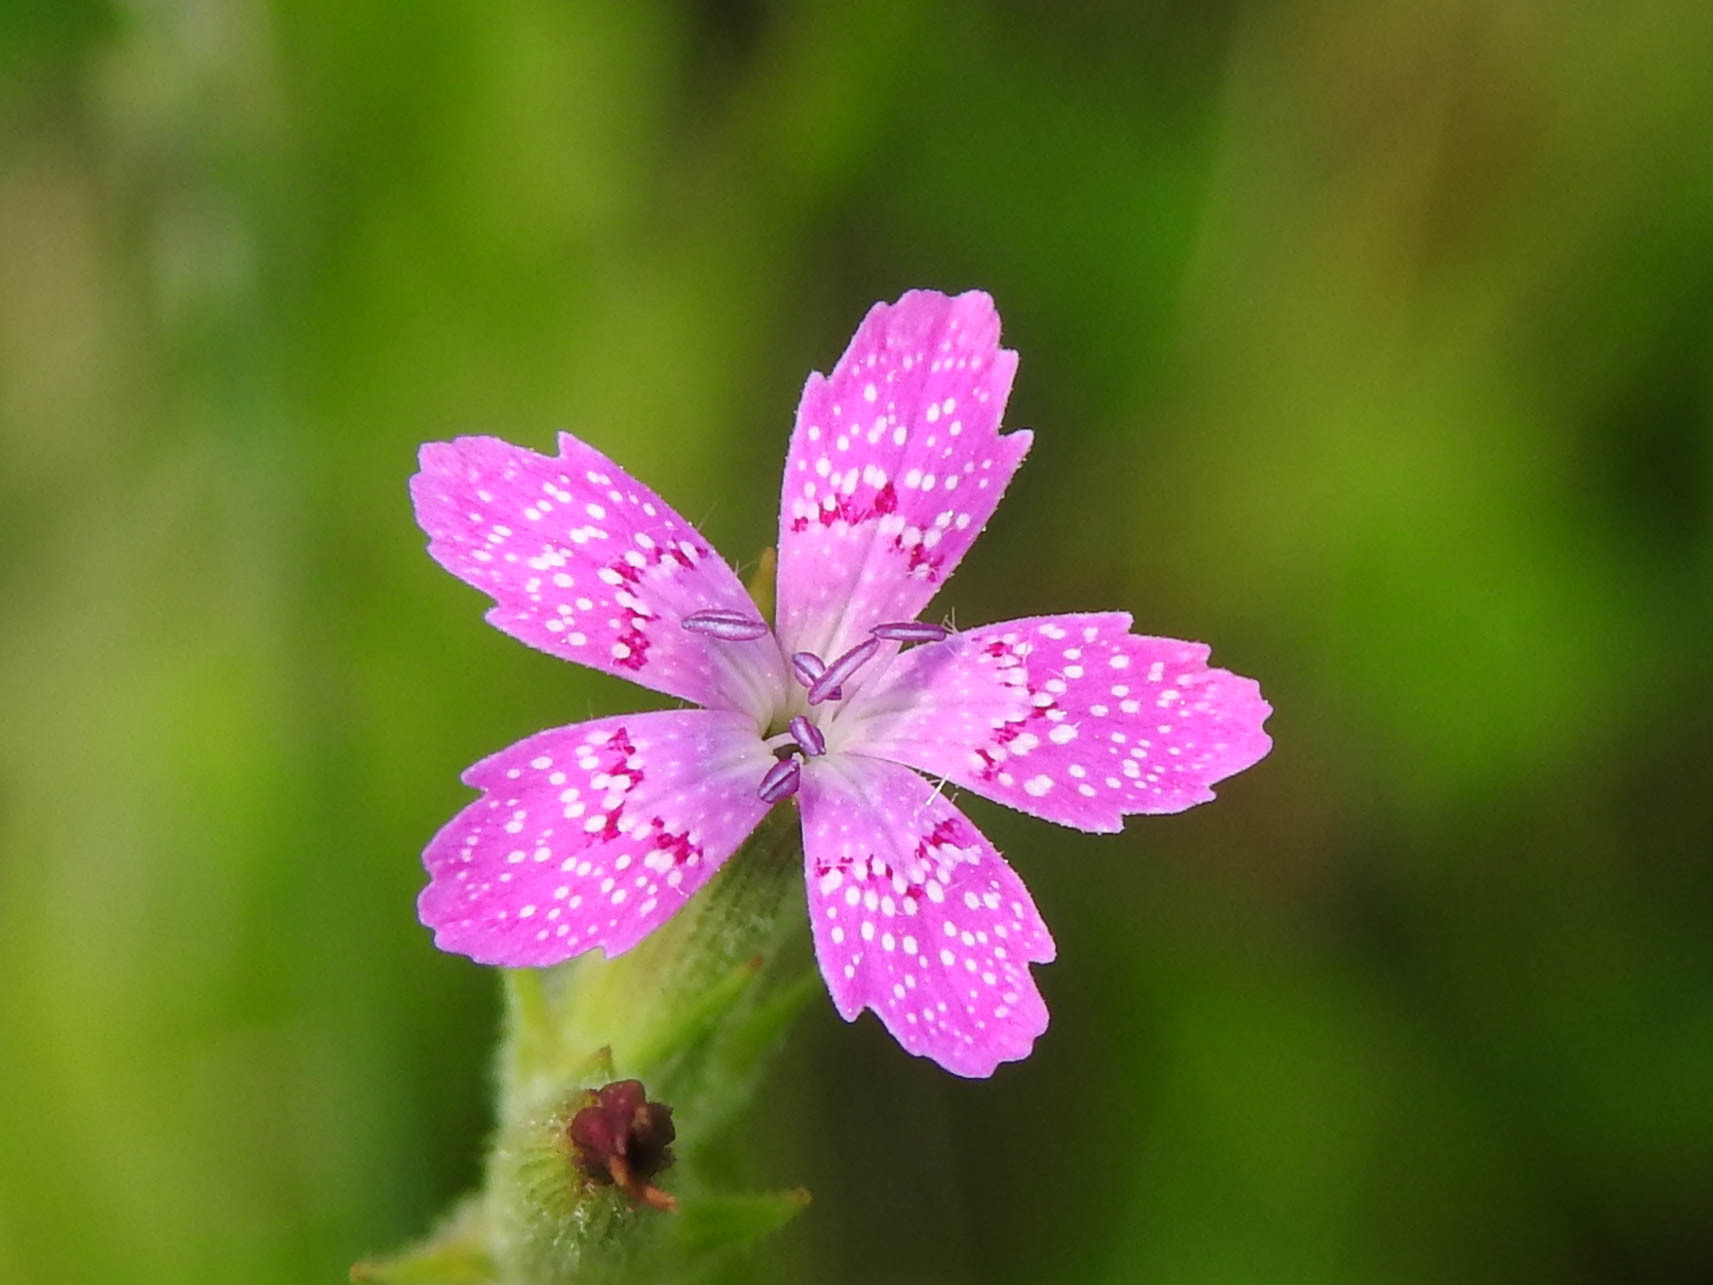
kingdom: Plantae
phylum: Tracheophyta
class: Magnoliopsida
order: Caryophyllales
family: Caryophyllaceae
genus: Dianthus
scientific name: Dianthus armeria
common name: Deptford pink
